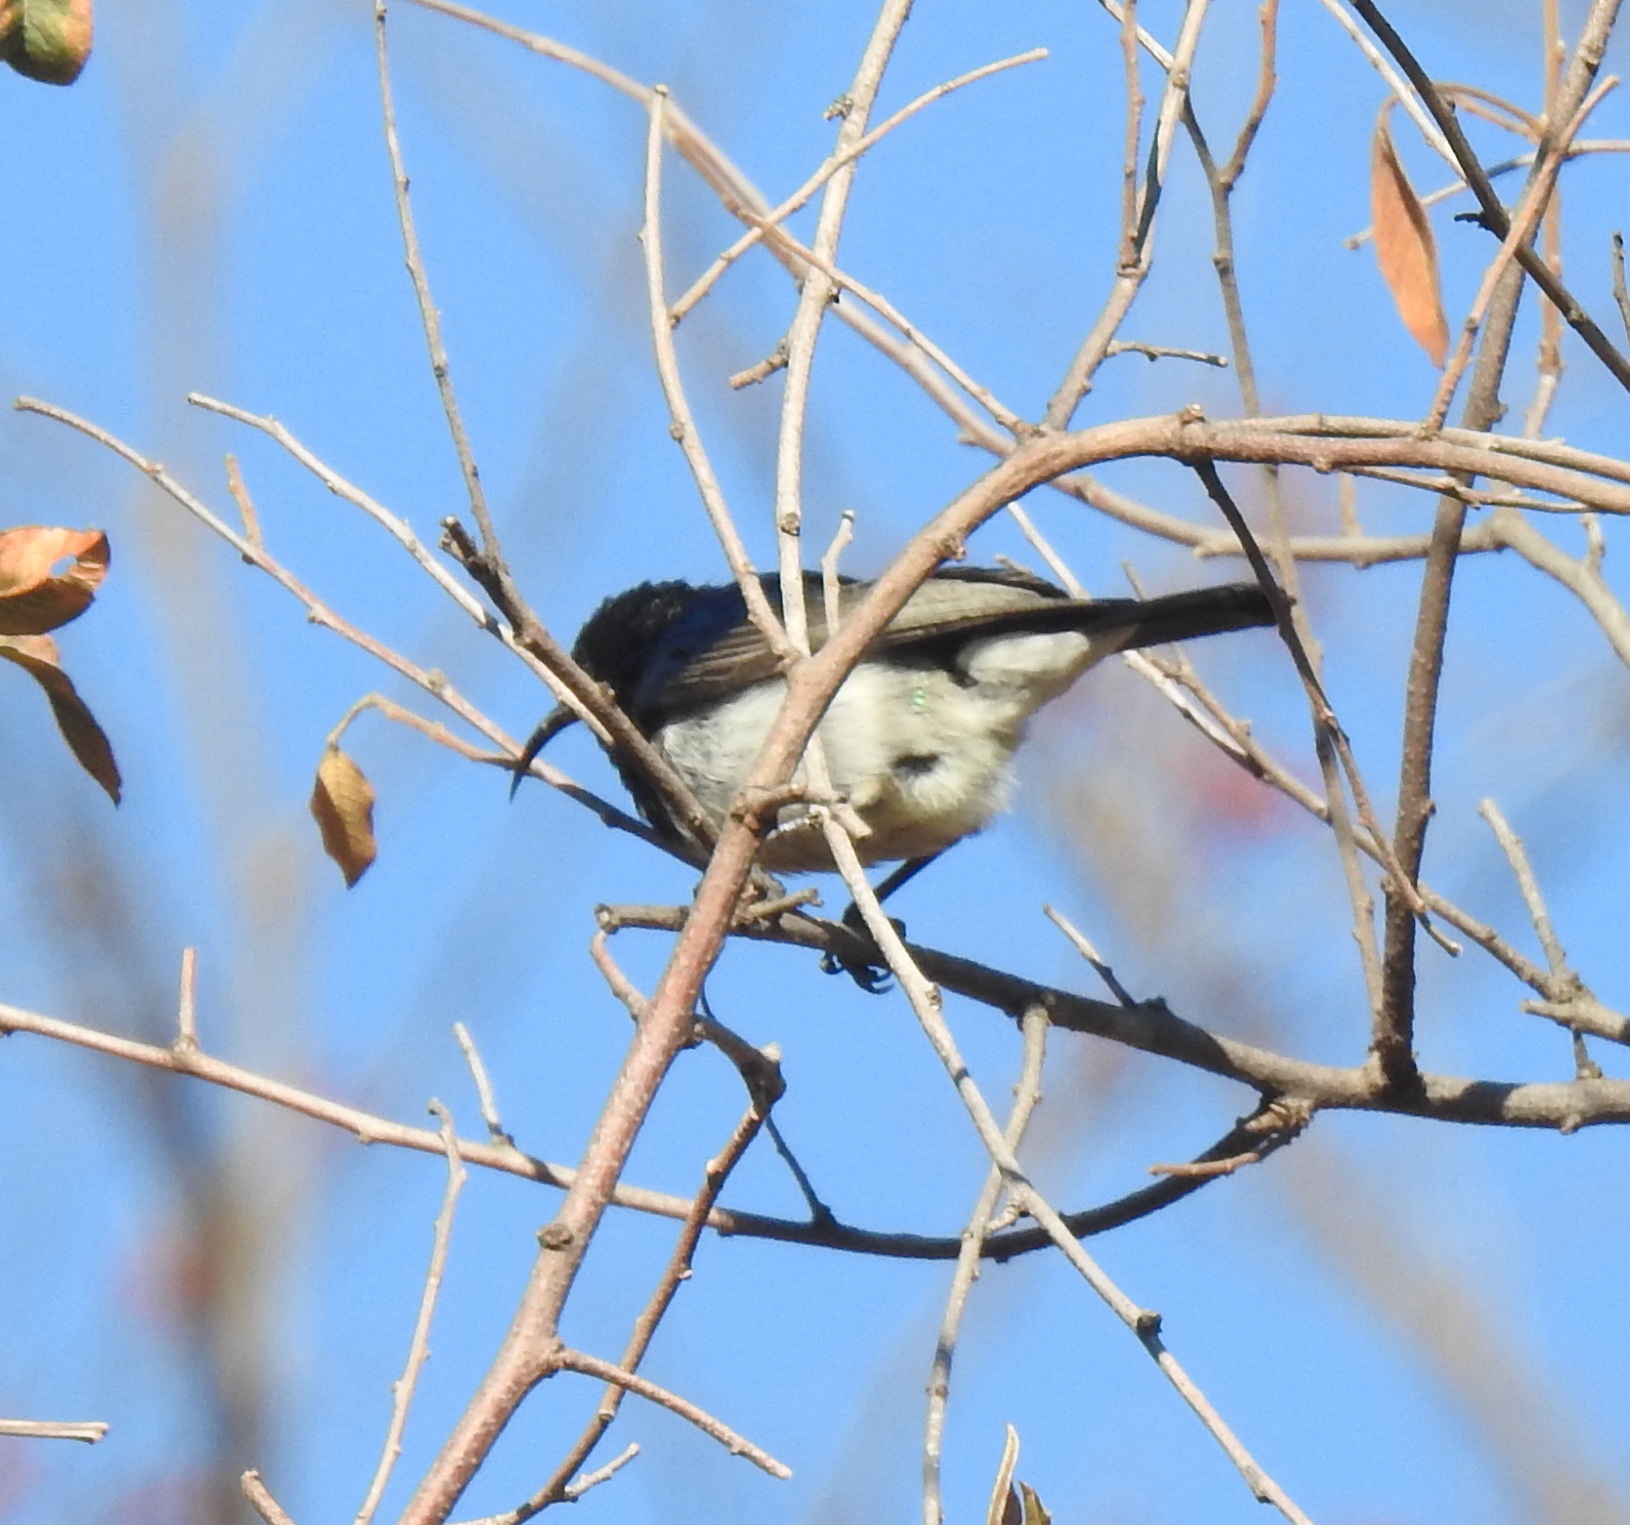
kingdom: Animalia
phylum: Chordata
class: Aves
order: Passeriformes
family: Nectariniidae
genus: Cinnyris
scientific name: Cinnyris talatala
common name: White-bellied sunbird
